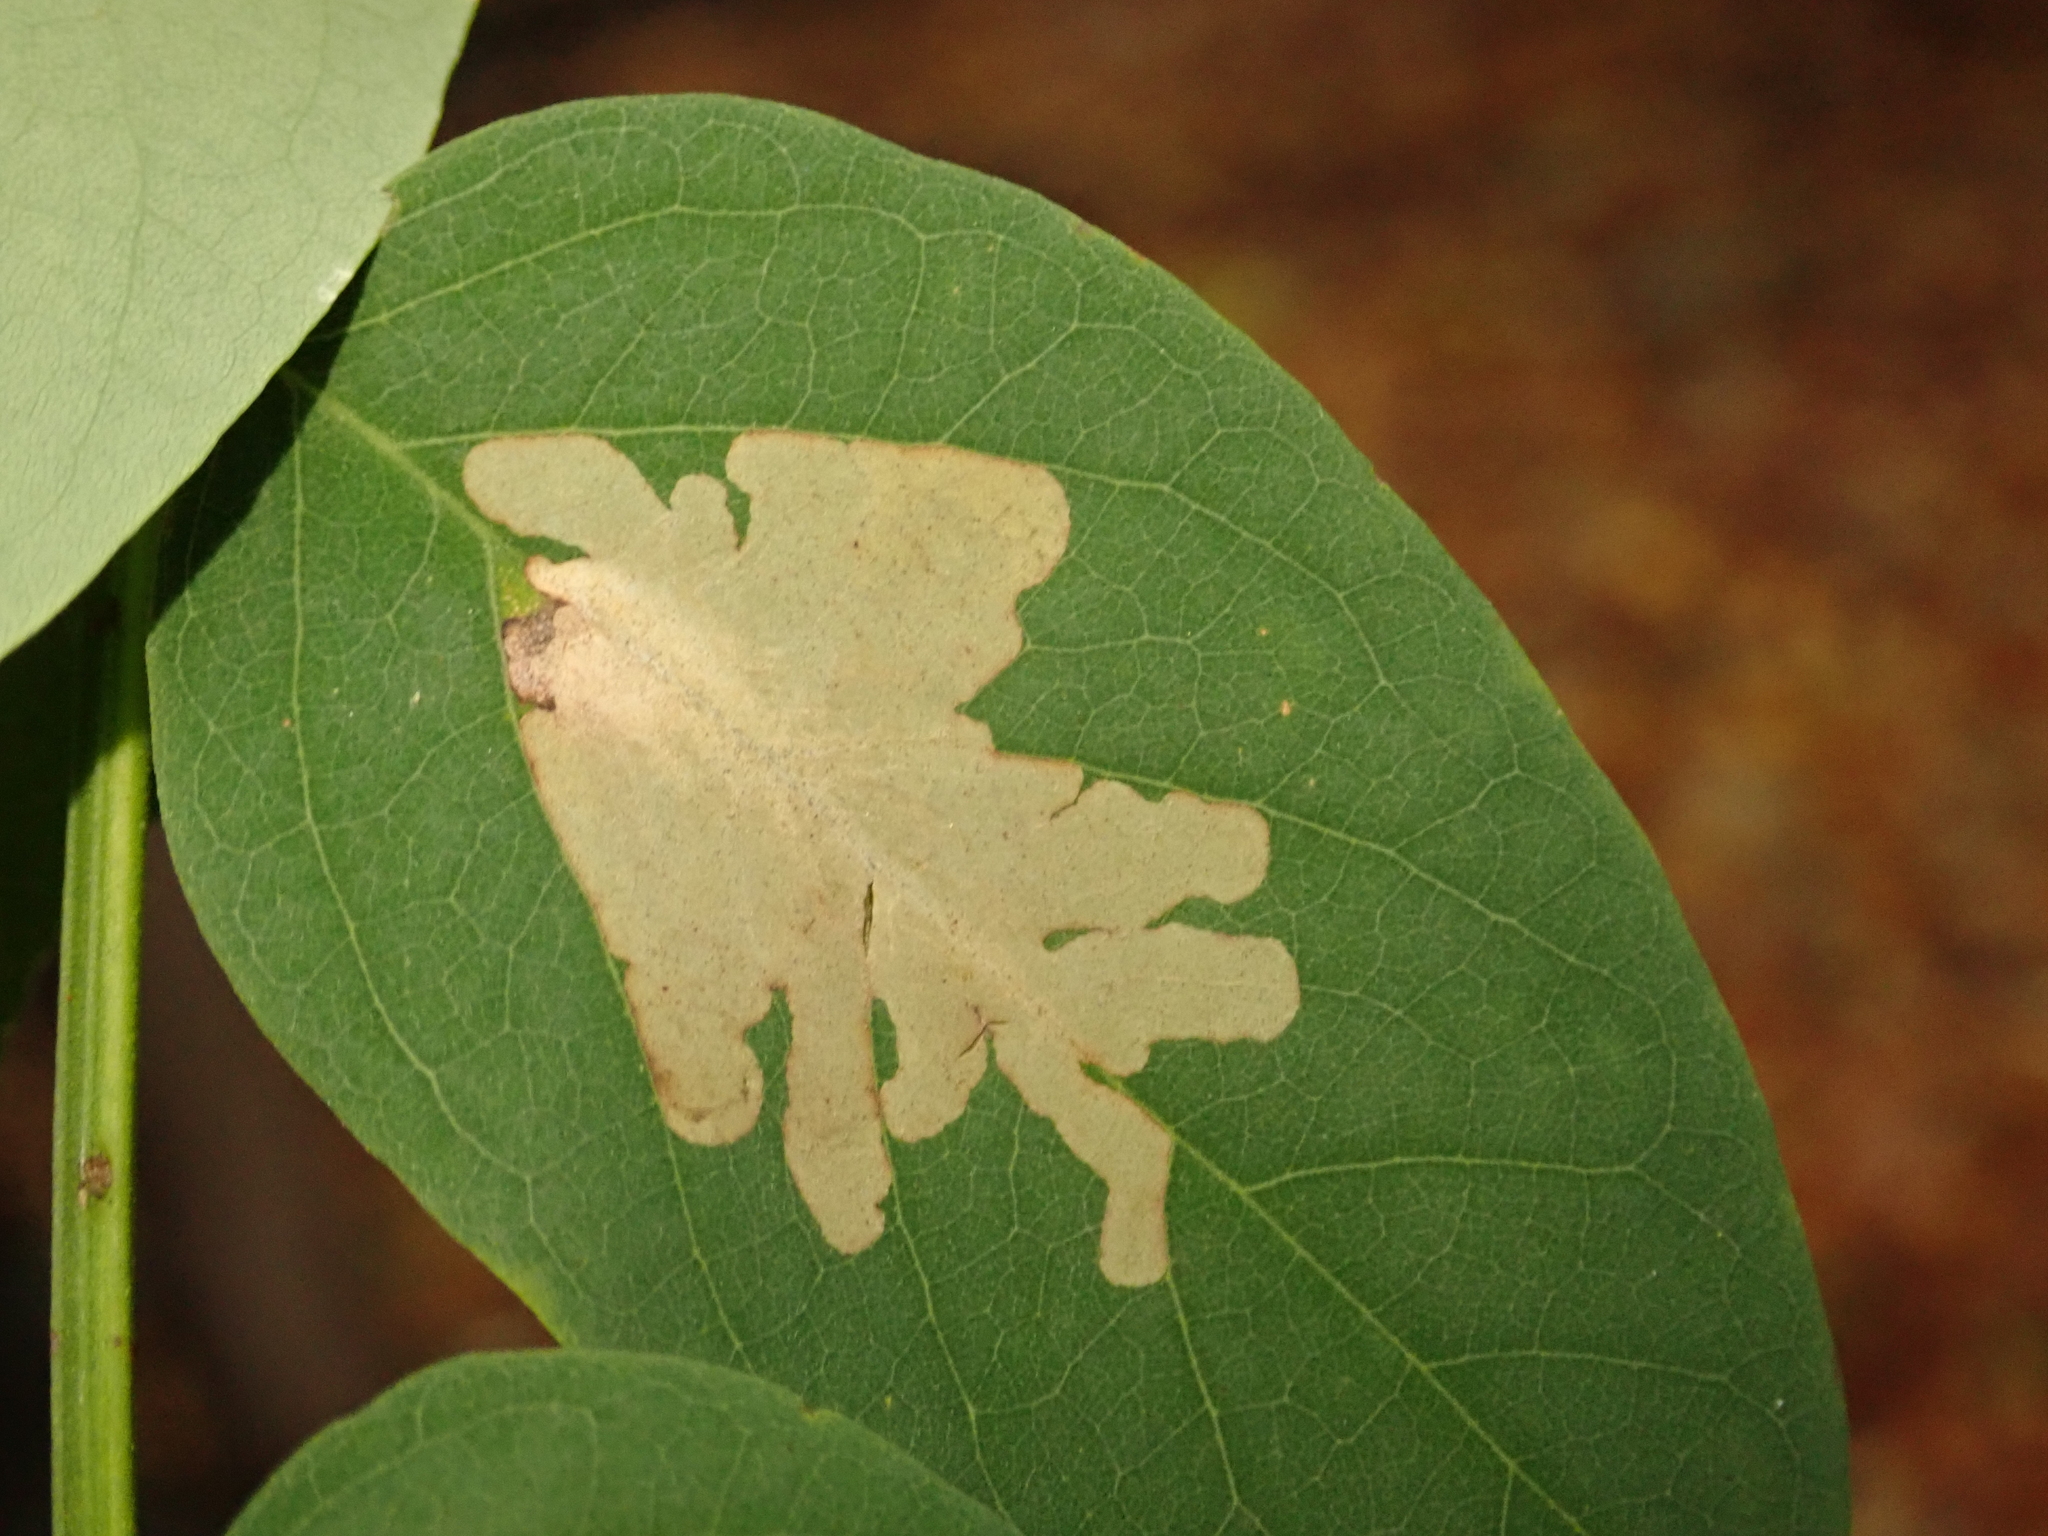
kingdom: Animalia
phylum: Arthropoda
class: Insecta
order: Lepidoptera
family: Gracillariidae
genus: Parectopa
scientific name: Parectopa robiniella
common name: Locust digitate leafminer
